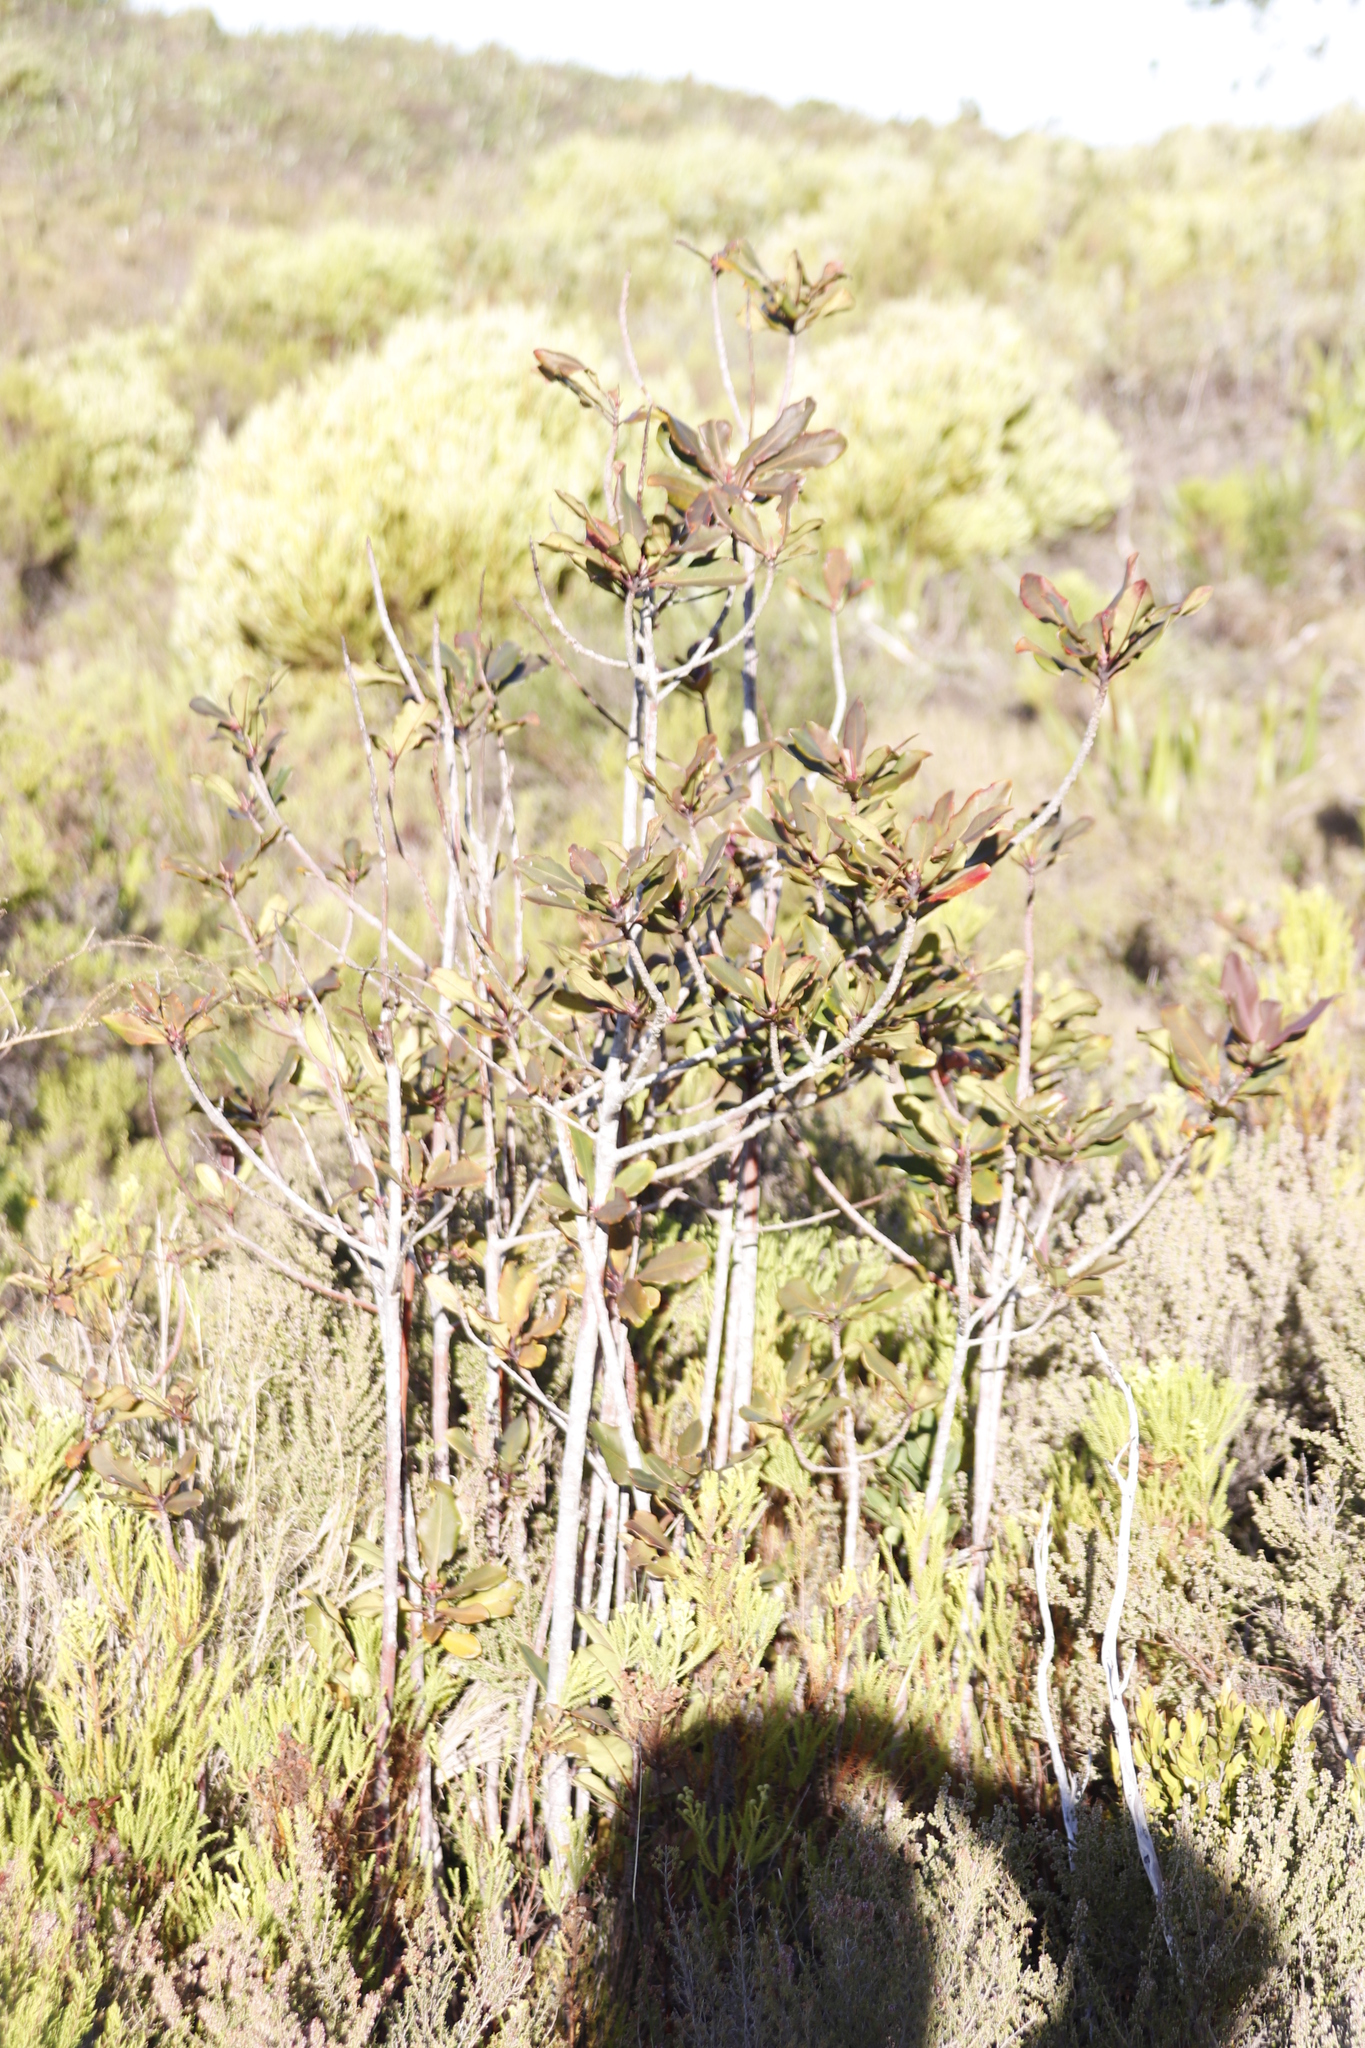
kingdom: Plantae
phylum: Tracheophyta
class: Magnoliopsida
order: Ericales
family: Primulaceae
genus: Myrsine
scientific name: Myrsine melanophloeos
